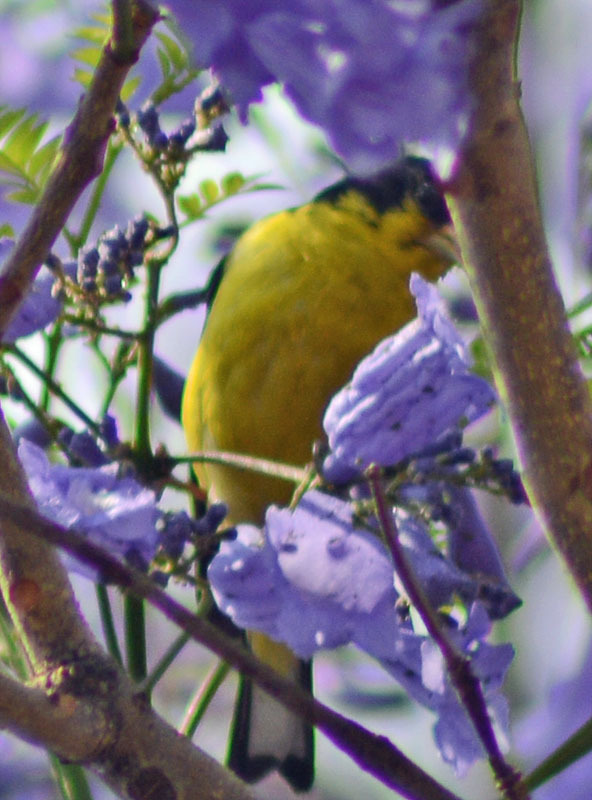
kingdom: Animalia
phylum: Chordata
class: Aves
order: Passeriformes
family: Fringillidae
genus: Spinus
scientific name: Spinus psaltria
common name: Lesser goldfinch
